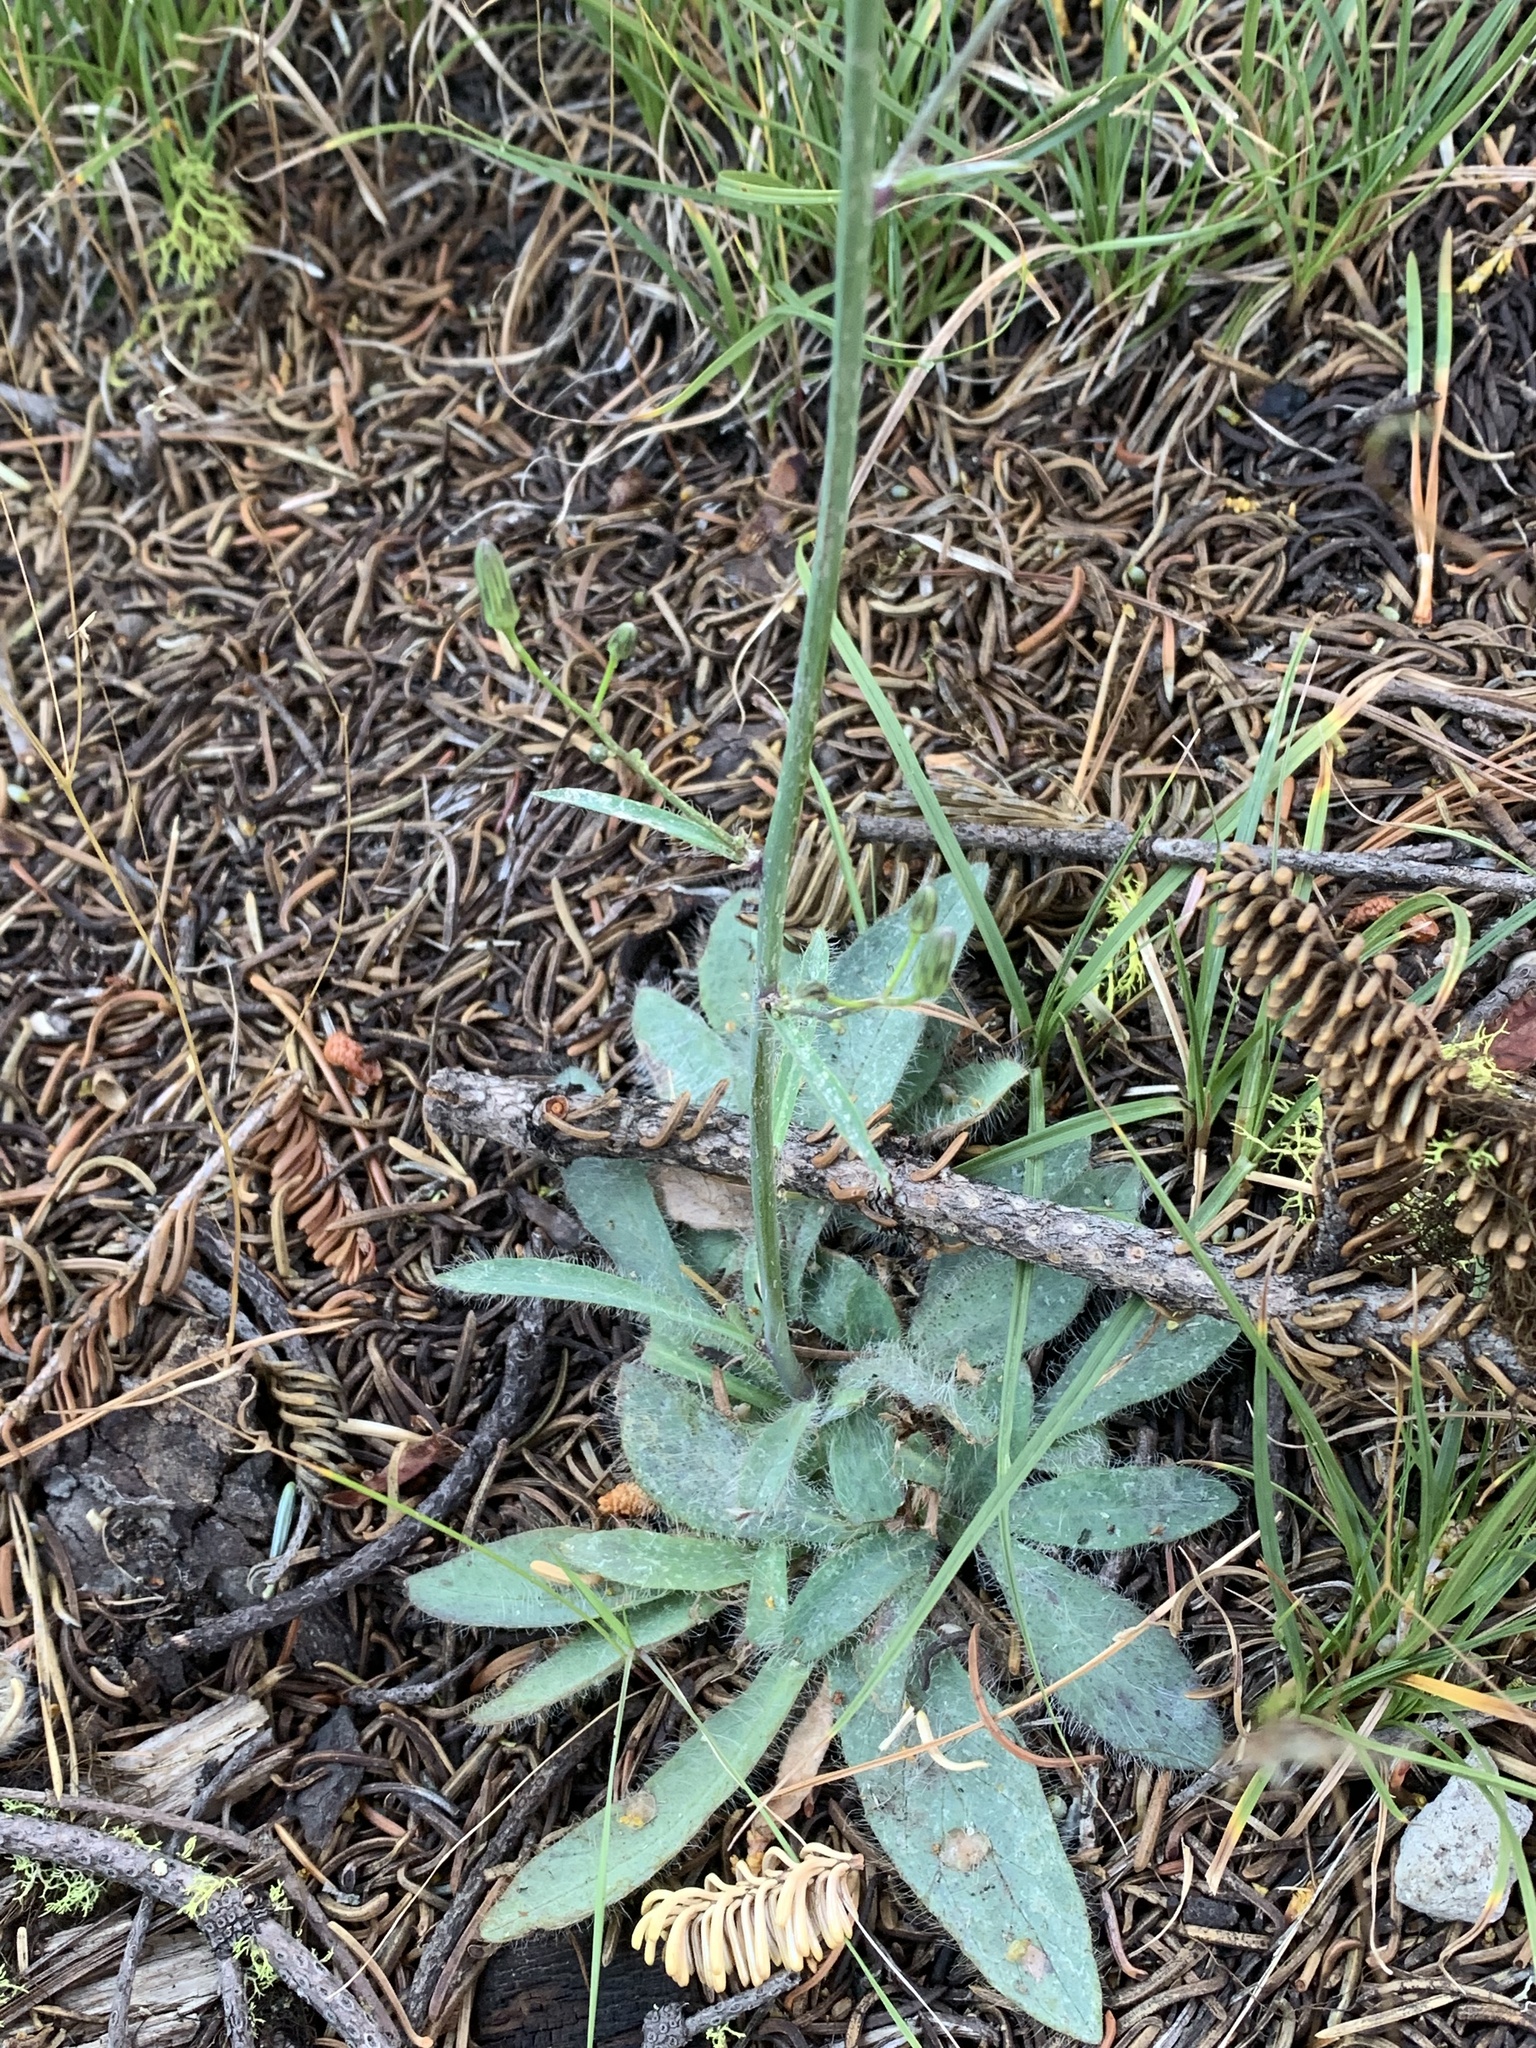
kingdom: Plantae
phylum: Tracheophyta
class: Magnoliopsida
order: Asterales
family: Asteraceae
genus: Hieracium
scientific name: Hieracium albiflorum
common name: White hawkweed
